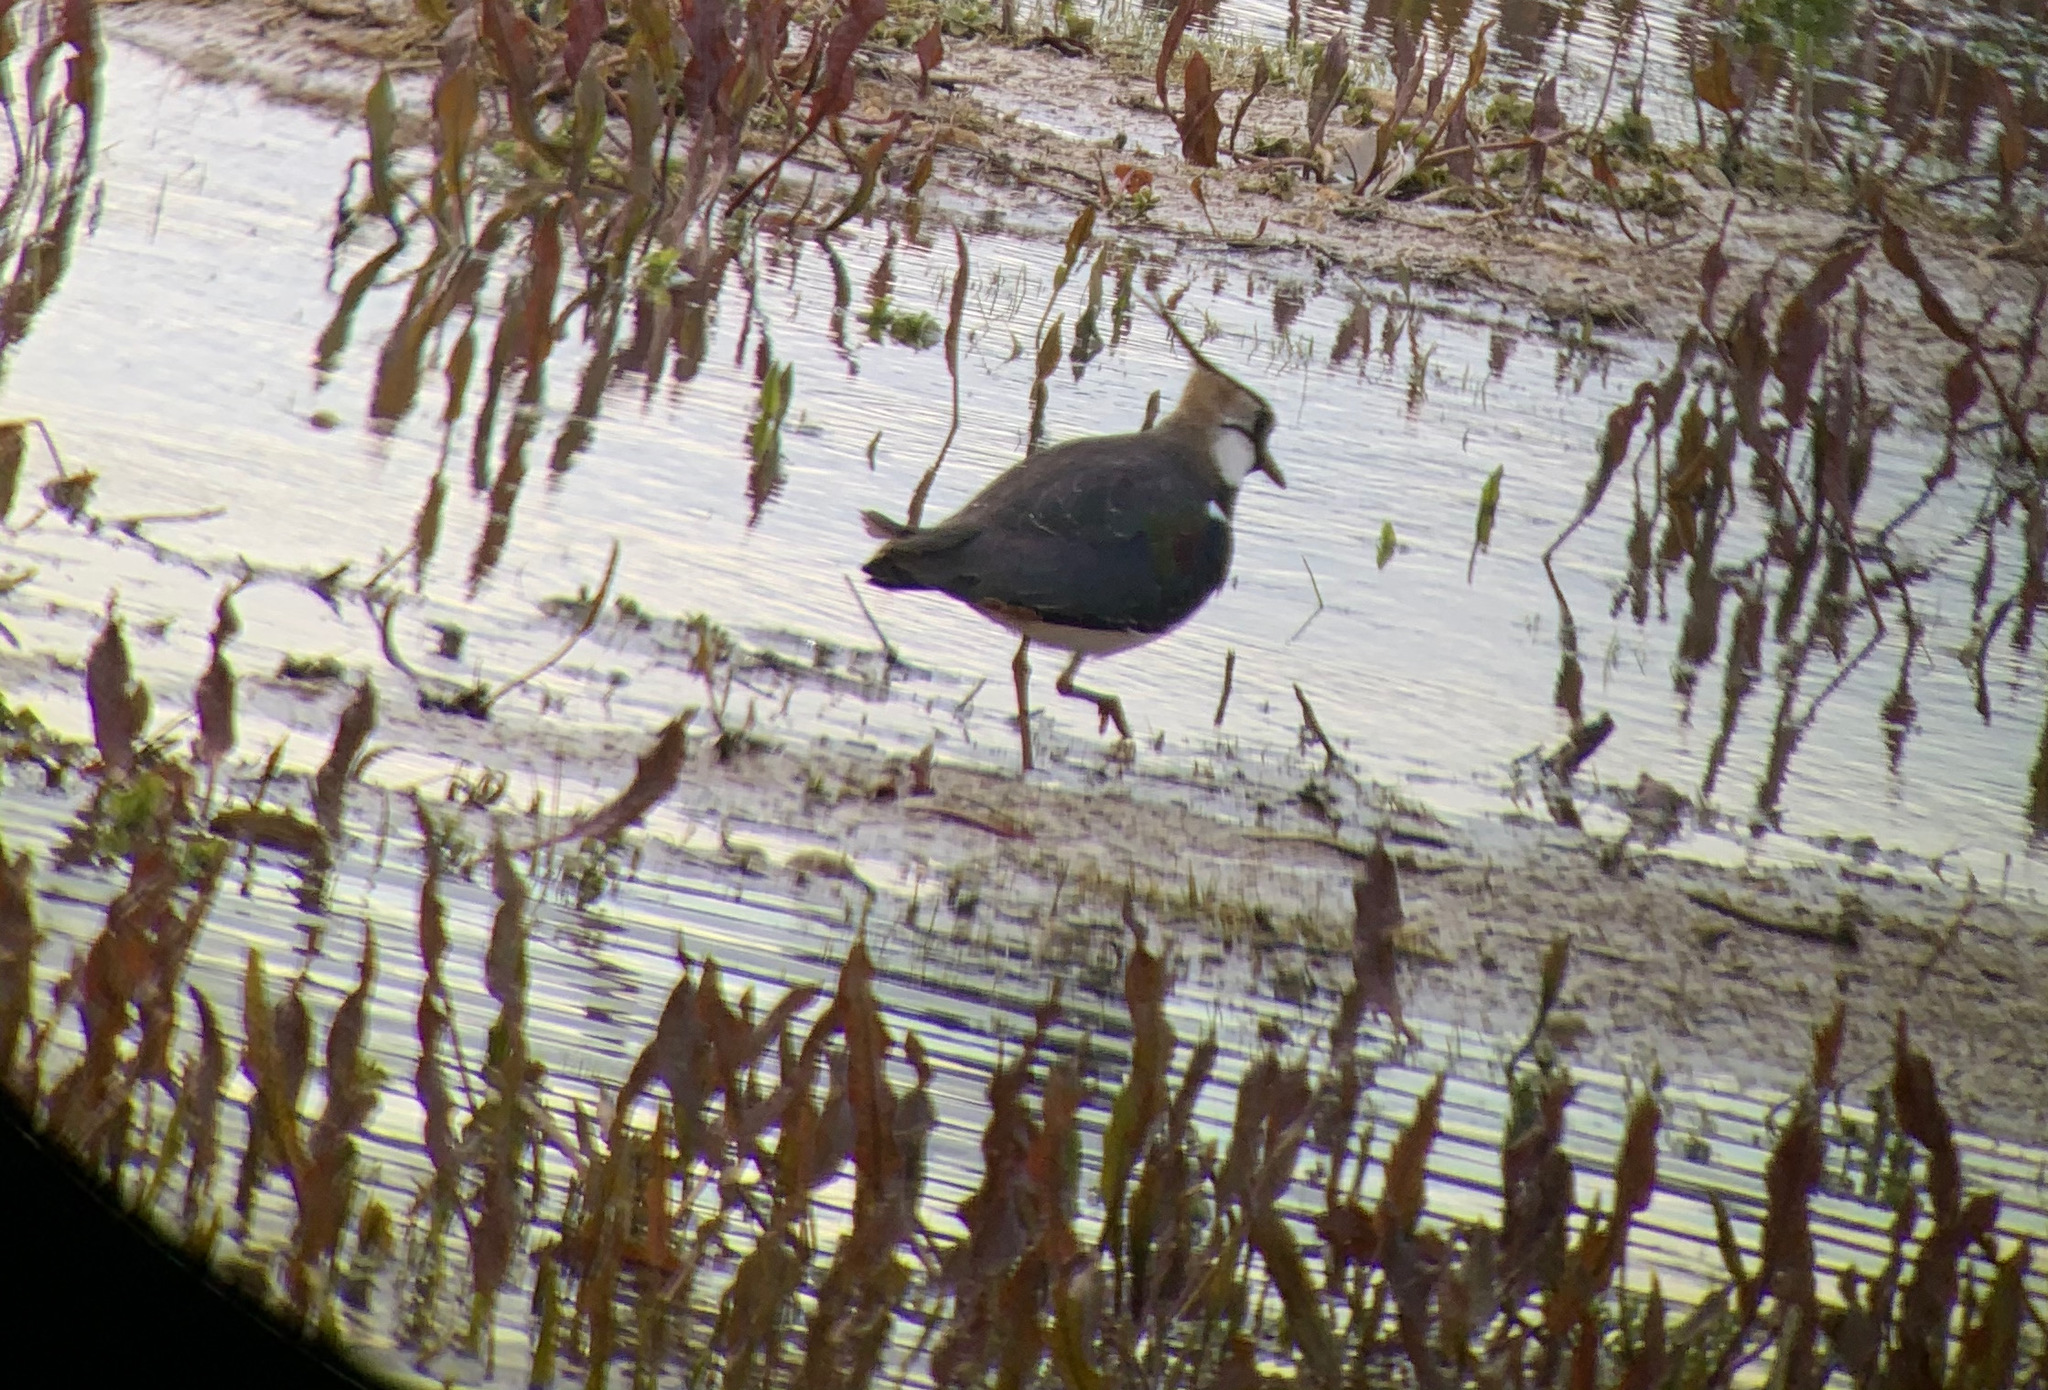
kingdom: Animalia
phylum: Chordata
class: Aves
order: Charadriiformes
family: Charadriidae
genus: Vanellus
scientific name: Vanellus vanellus
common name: Northern lapwing
